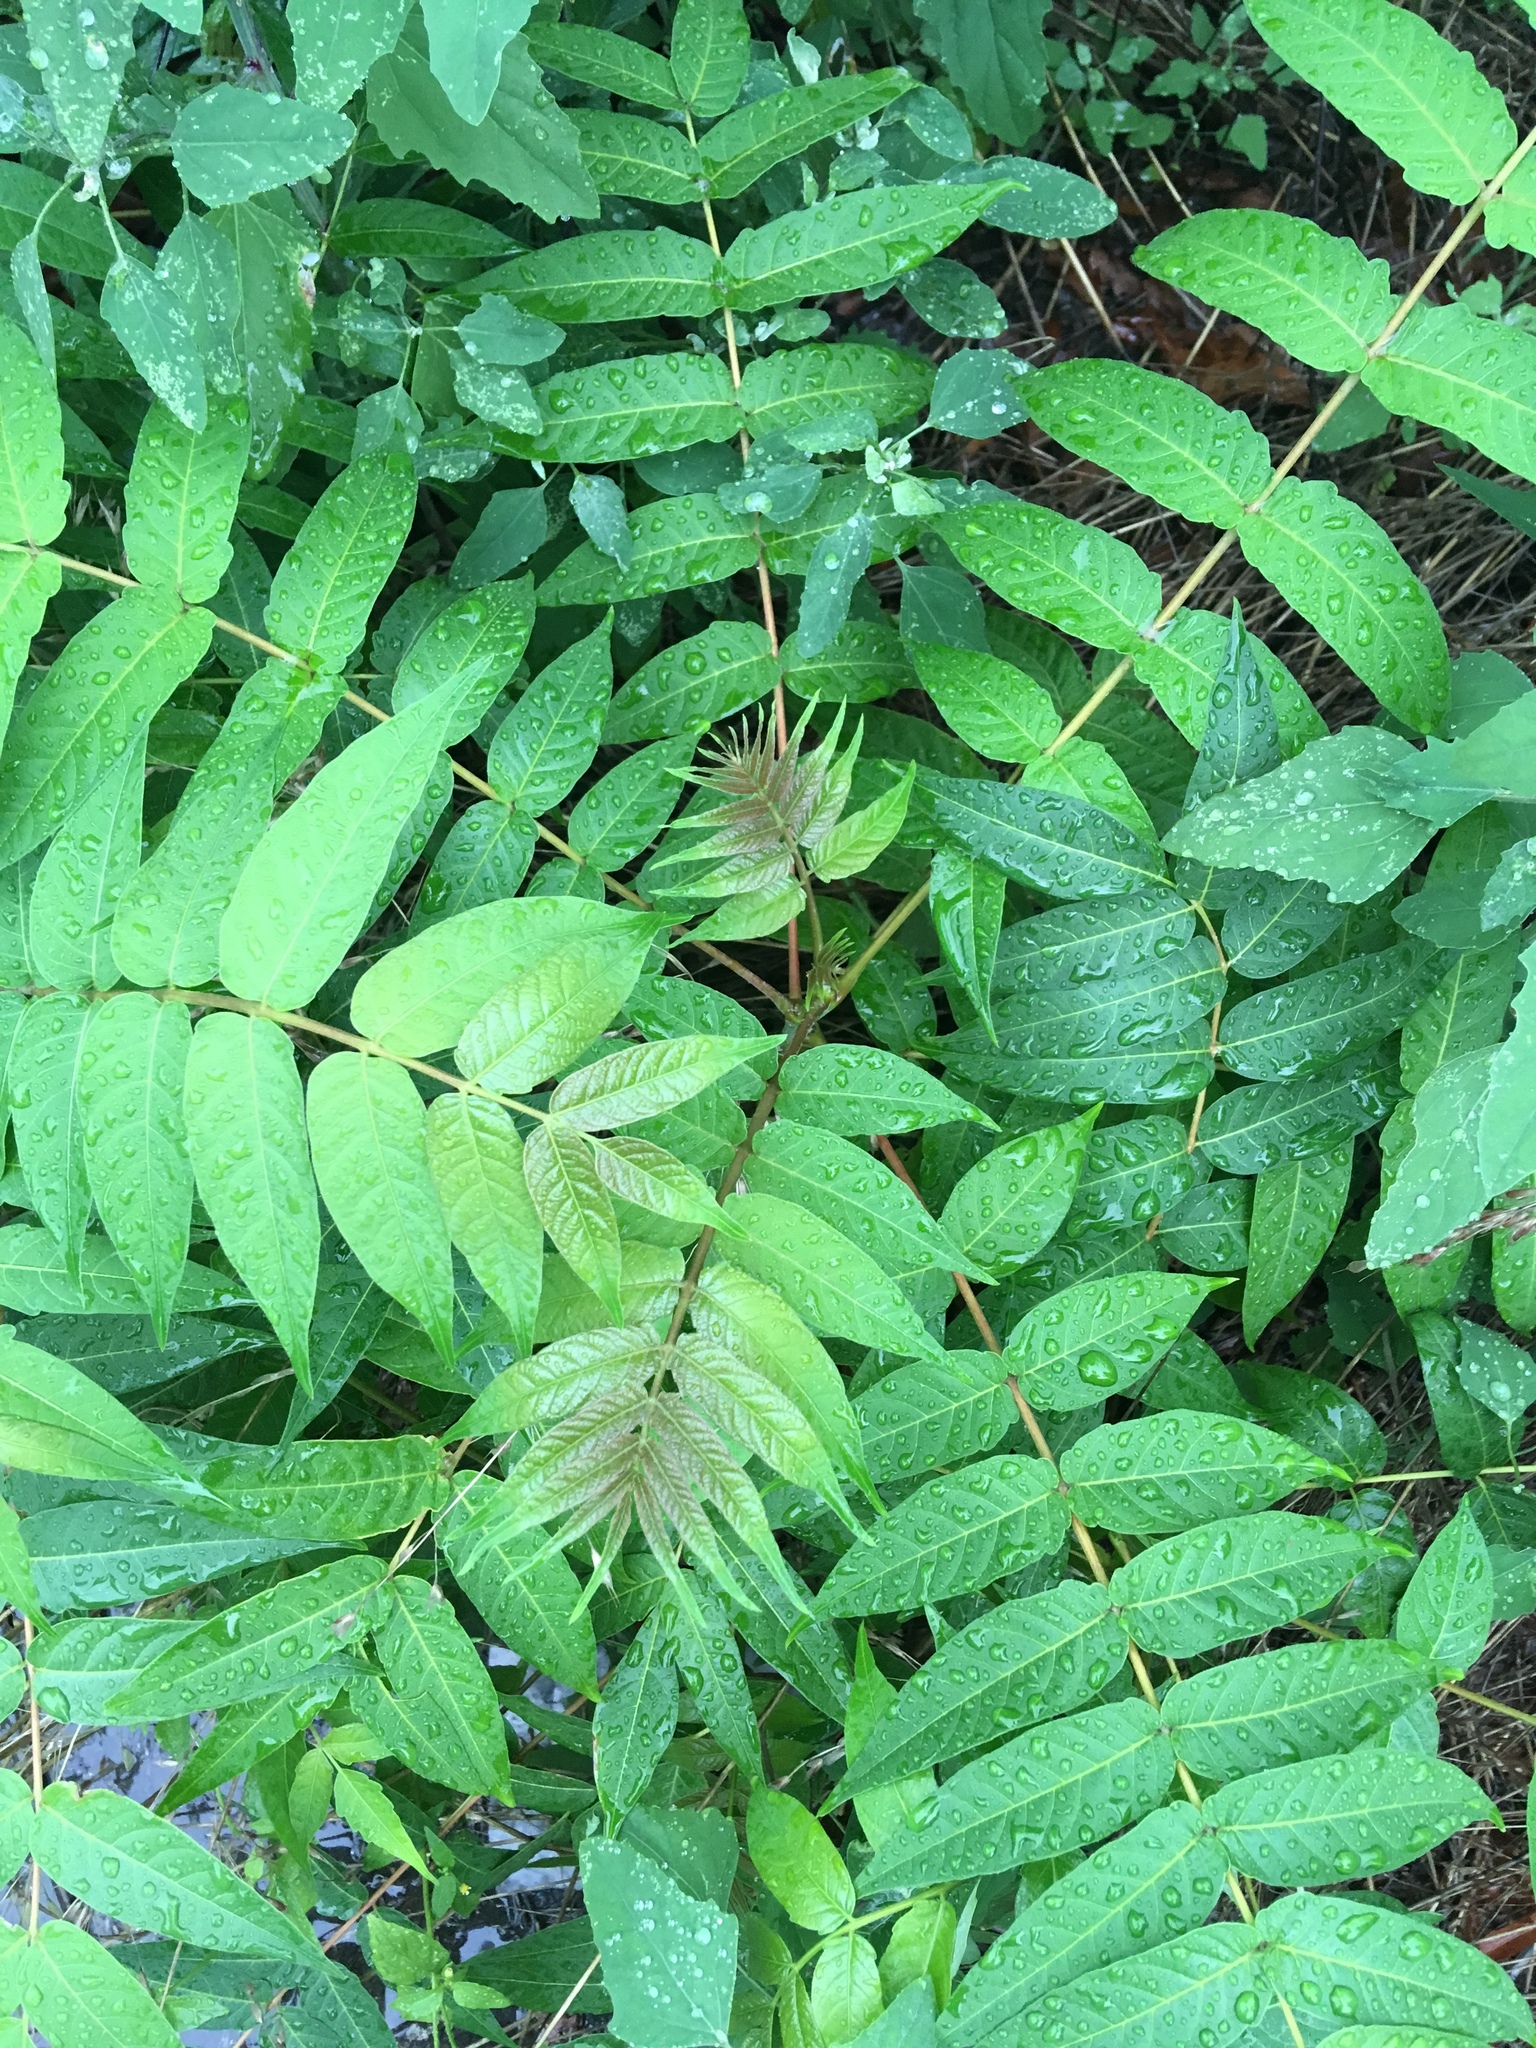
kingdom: Plantae
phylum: Tracheophyta
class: Magnoliopsida
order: Sapindales
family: Simaroubaceae
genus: Ailanthus
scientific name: Ailanthus altissima
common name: Tree-of-heaven
